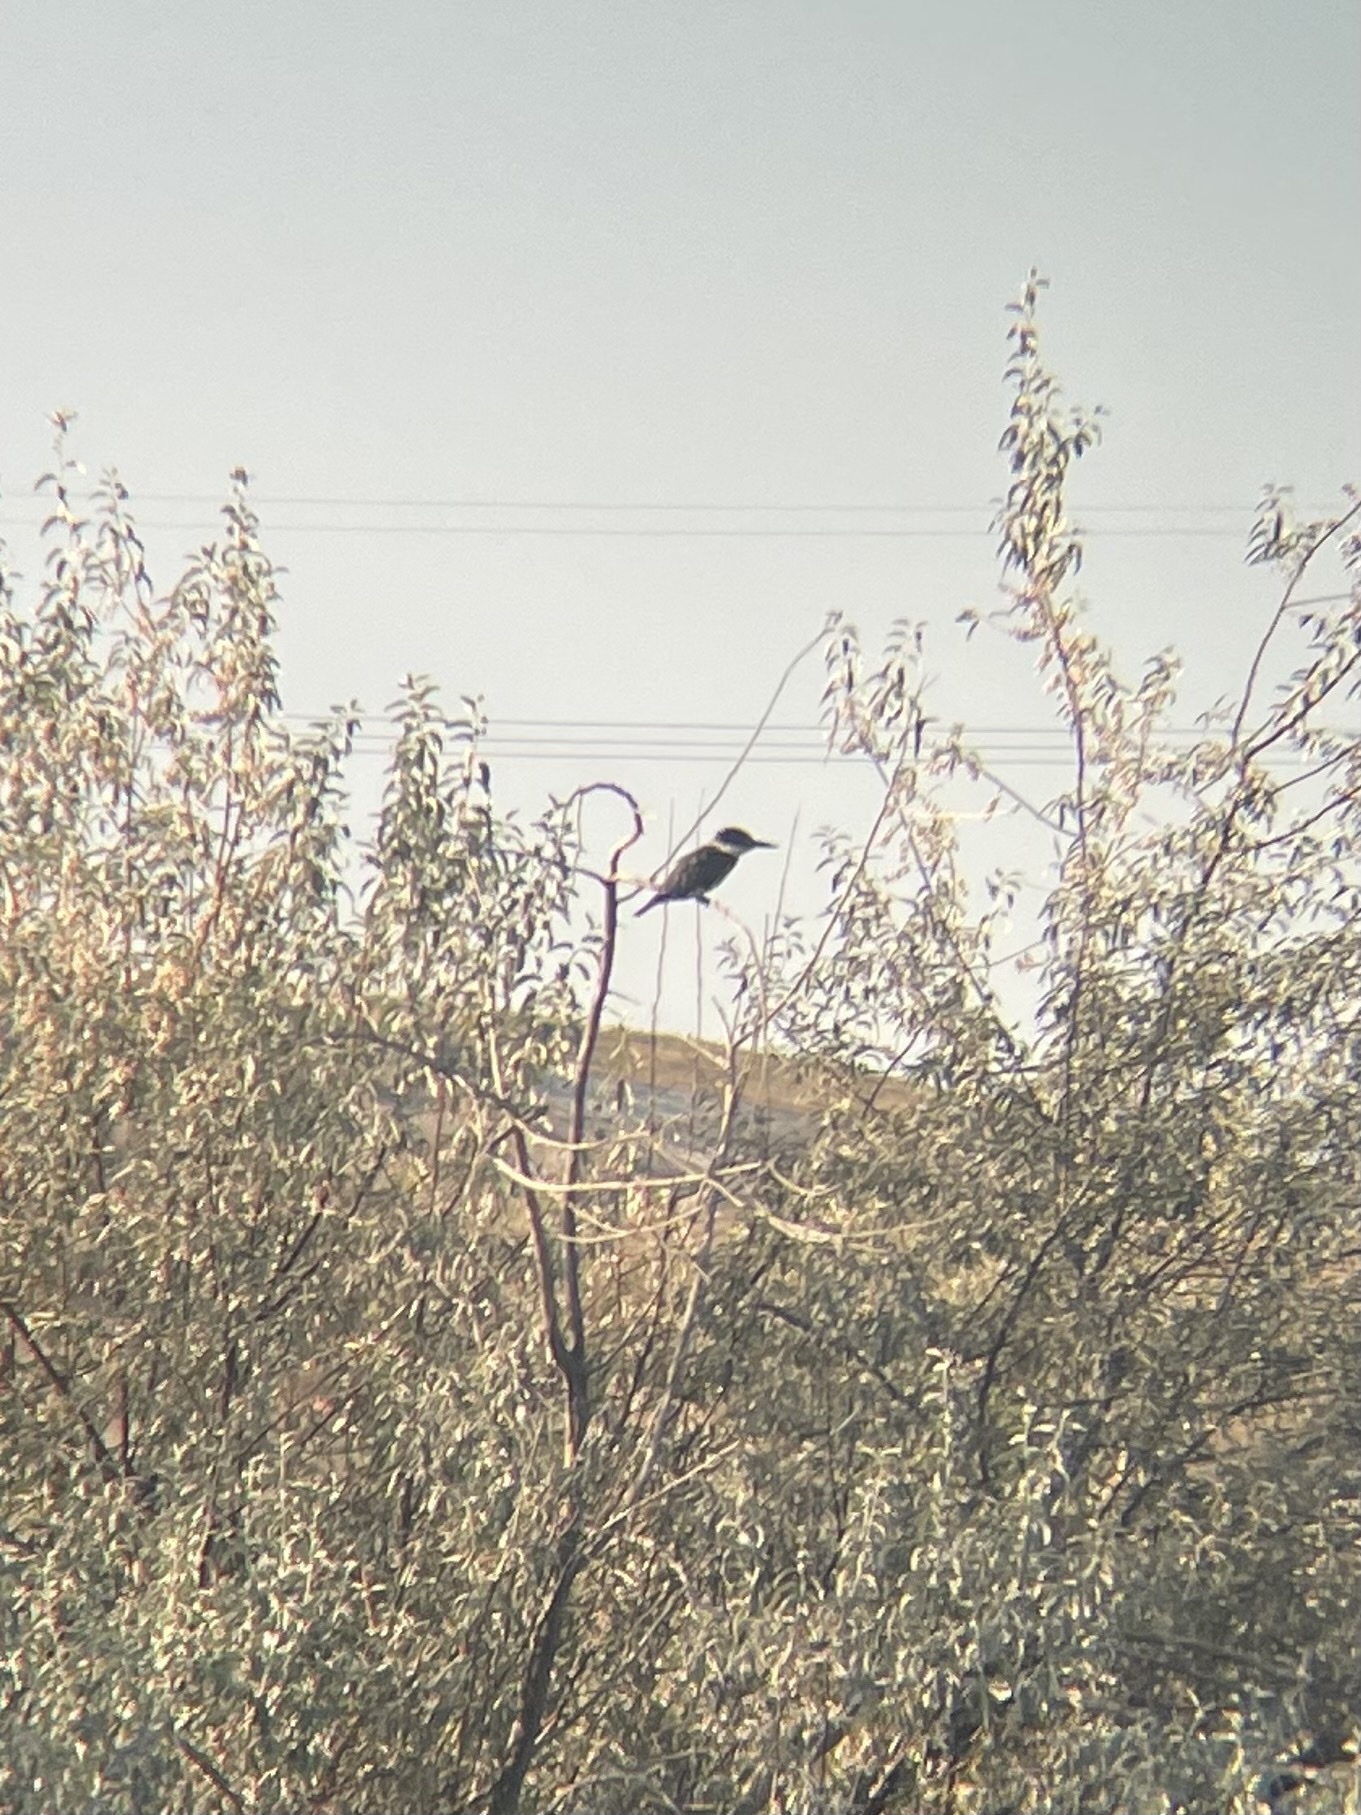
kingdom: Animalia
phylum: Chordata
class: Aves
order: Coraciiformes
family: Alcedinidae
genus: Megaceryle
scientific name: Megaceryle alcyon
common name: Belted kingfisher
